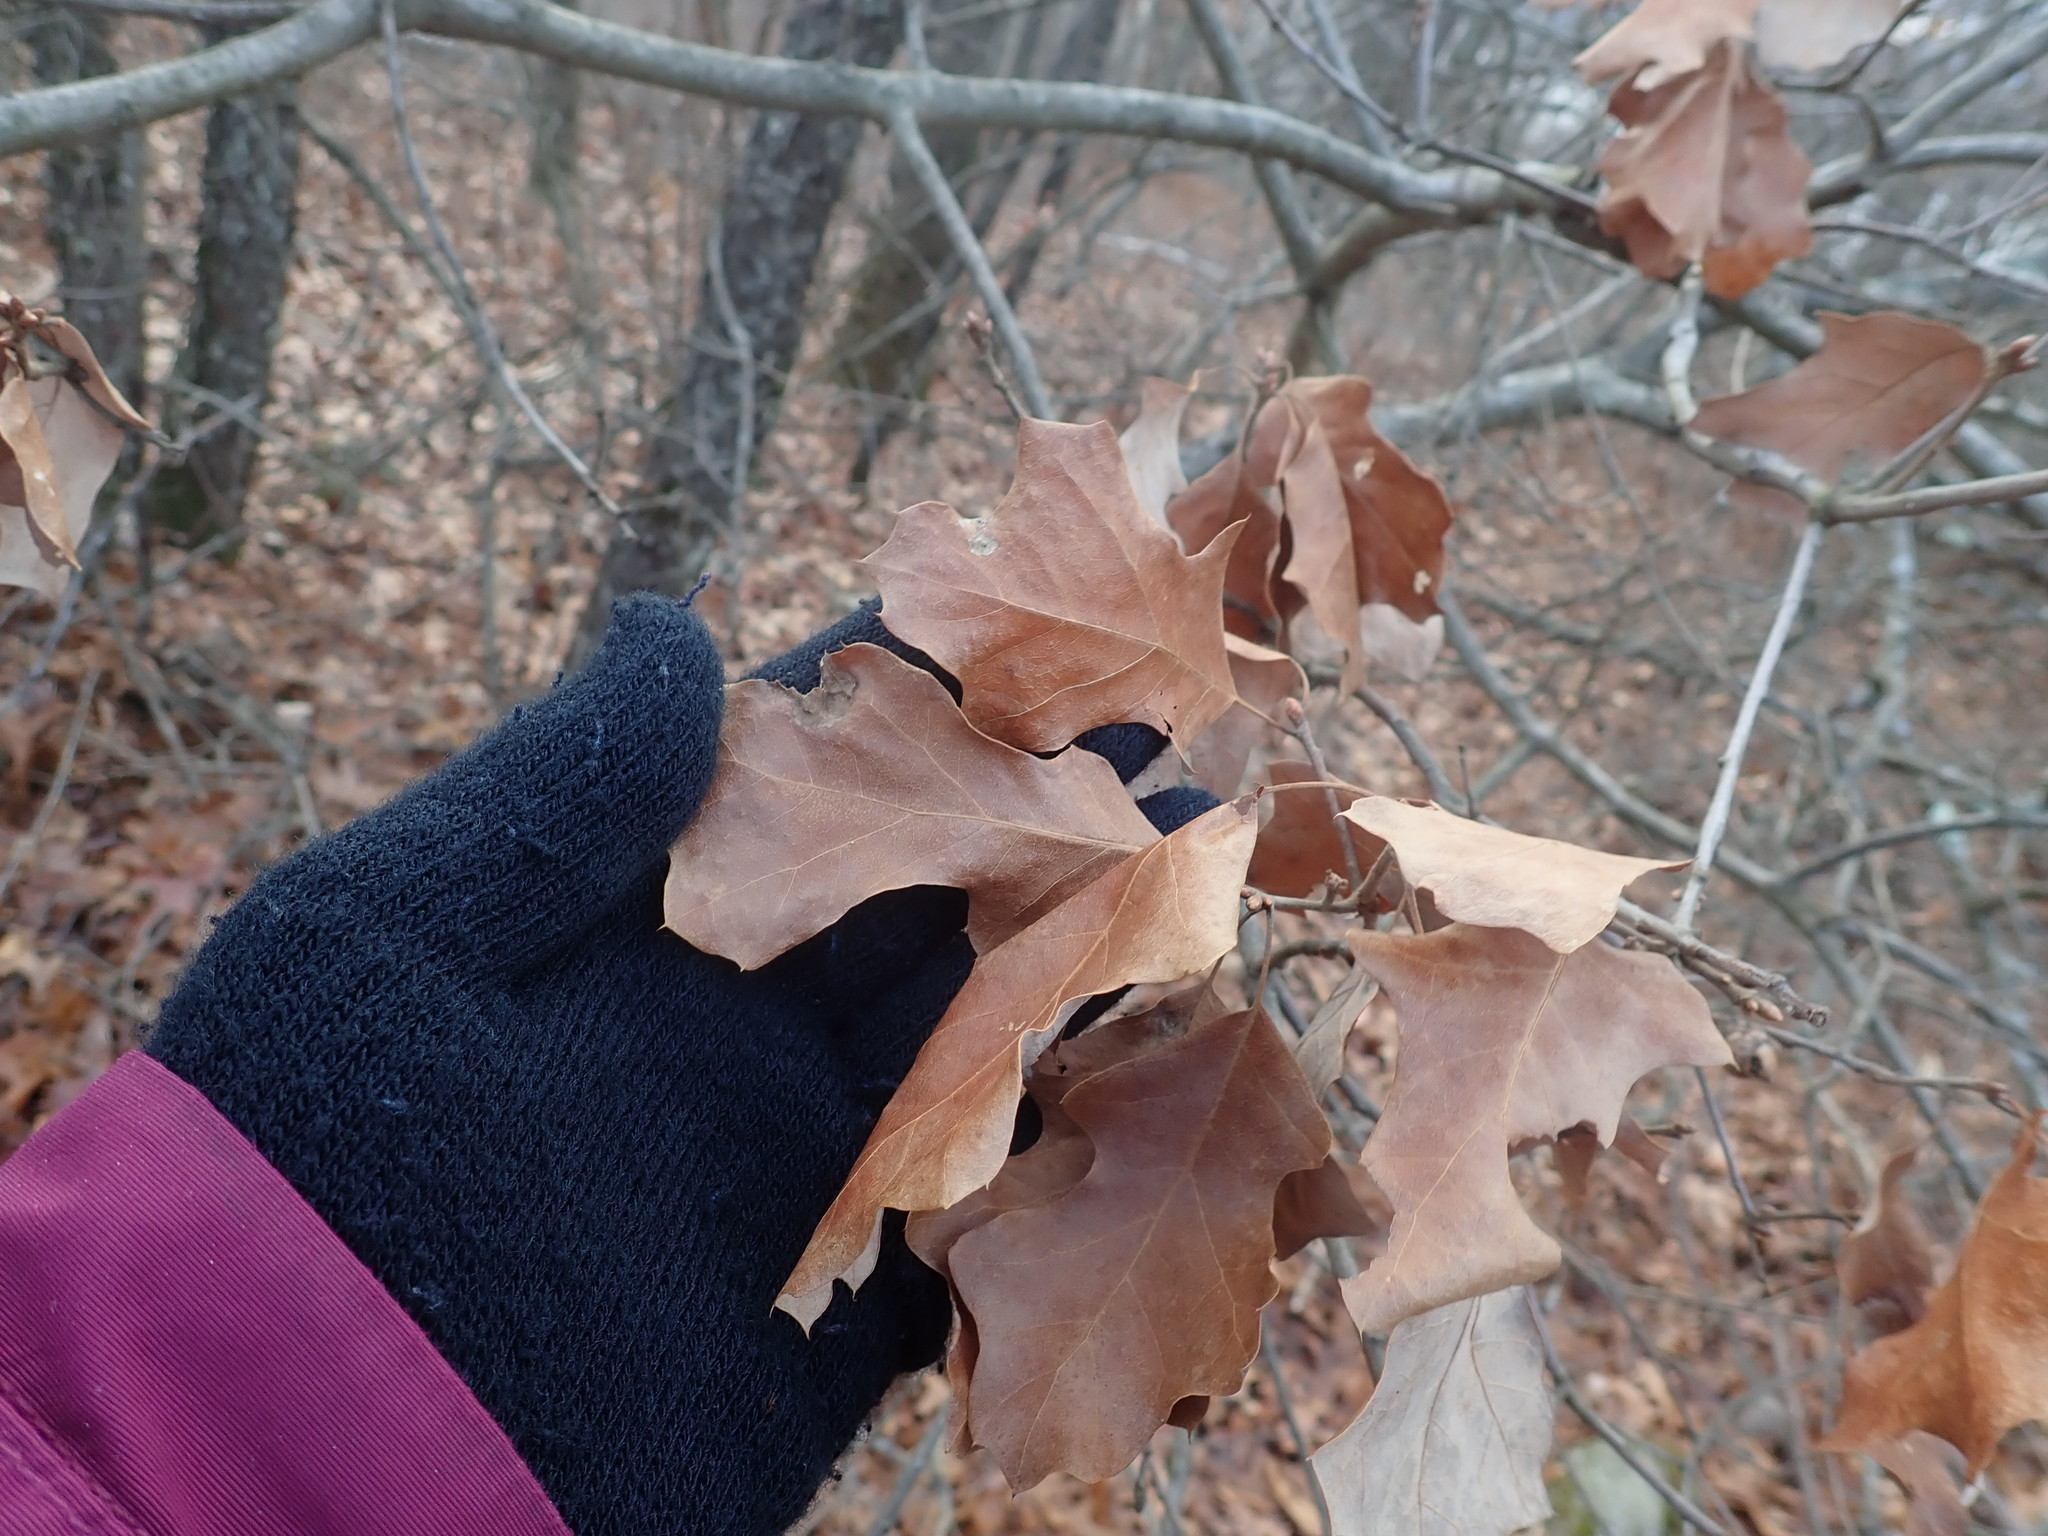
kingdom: Plantae
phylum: Tracheophyta
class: Magnoliopsida
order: Fagales
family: Fagaceae
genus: Quercus
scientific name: Quercus ilicifolia
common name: Bear oak
